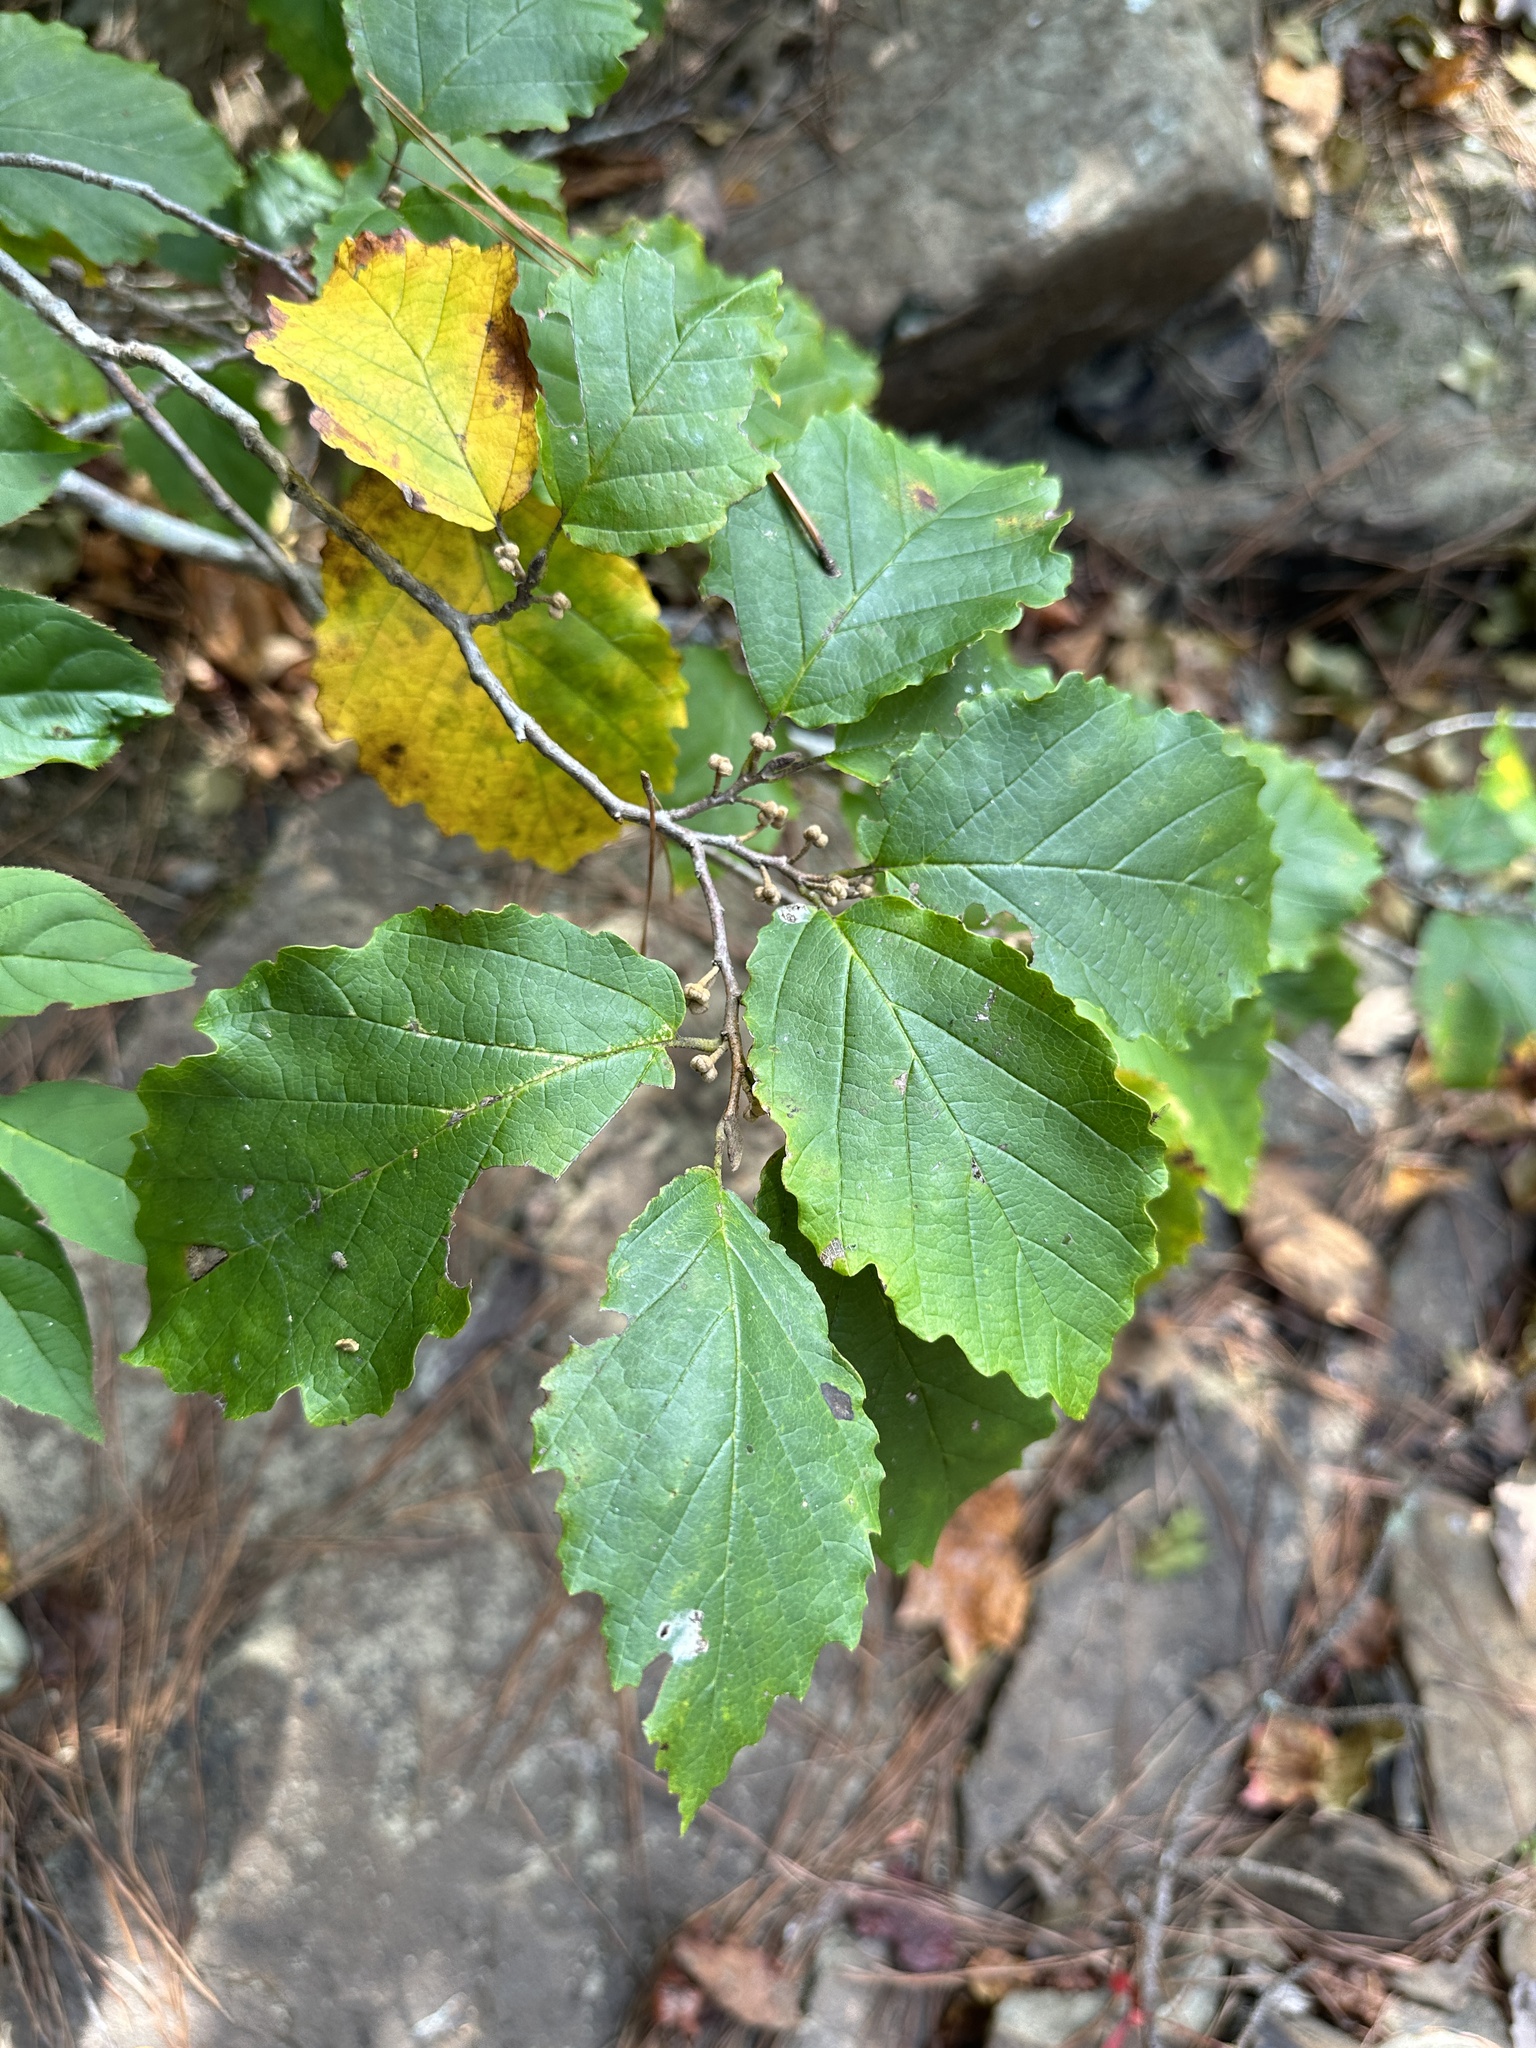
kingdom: Plantae
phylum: Tracheophyta
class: Magnoliopsida
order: Saxifragales
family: Hamamelidaceae
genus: Hamamelis
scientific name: Hamamelis virginiana
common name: Witch-hazel
